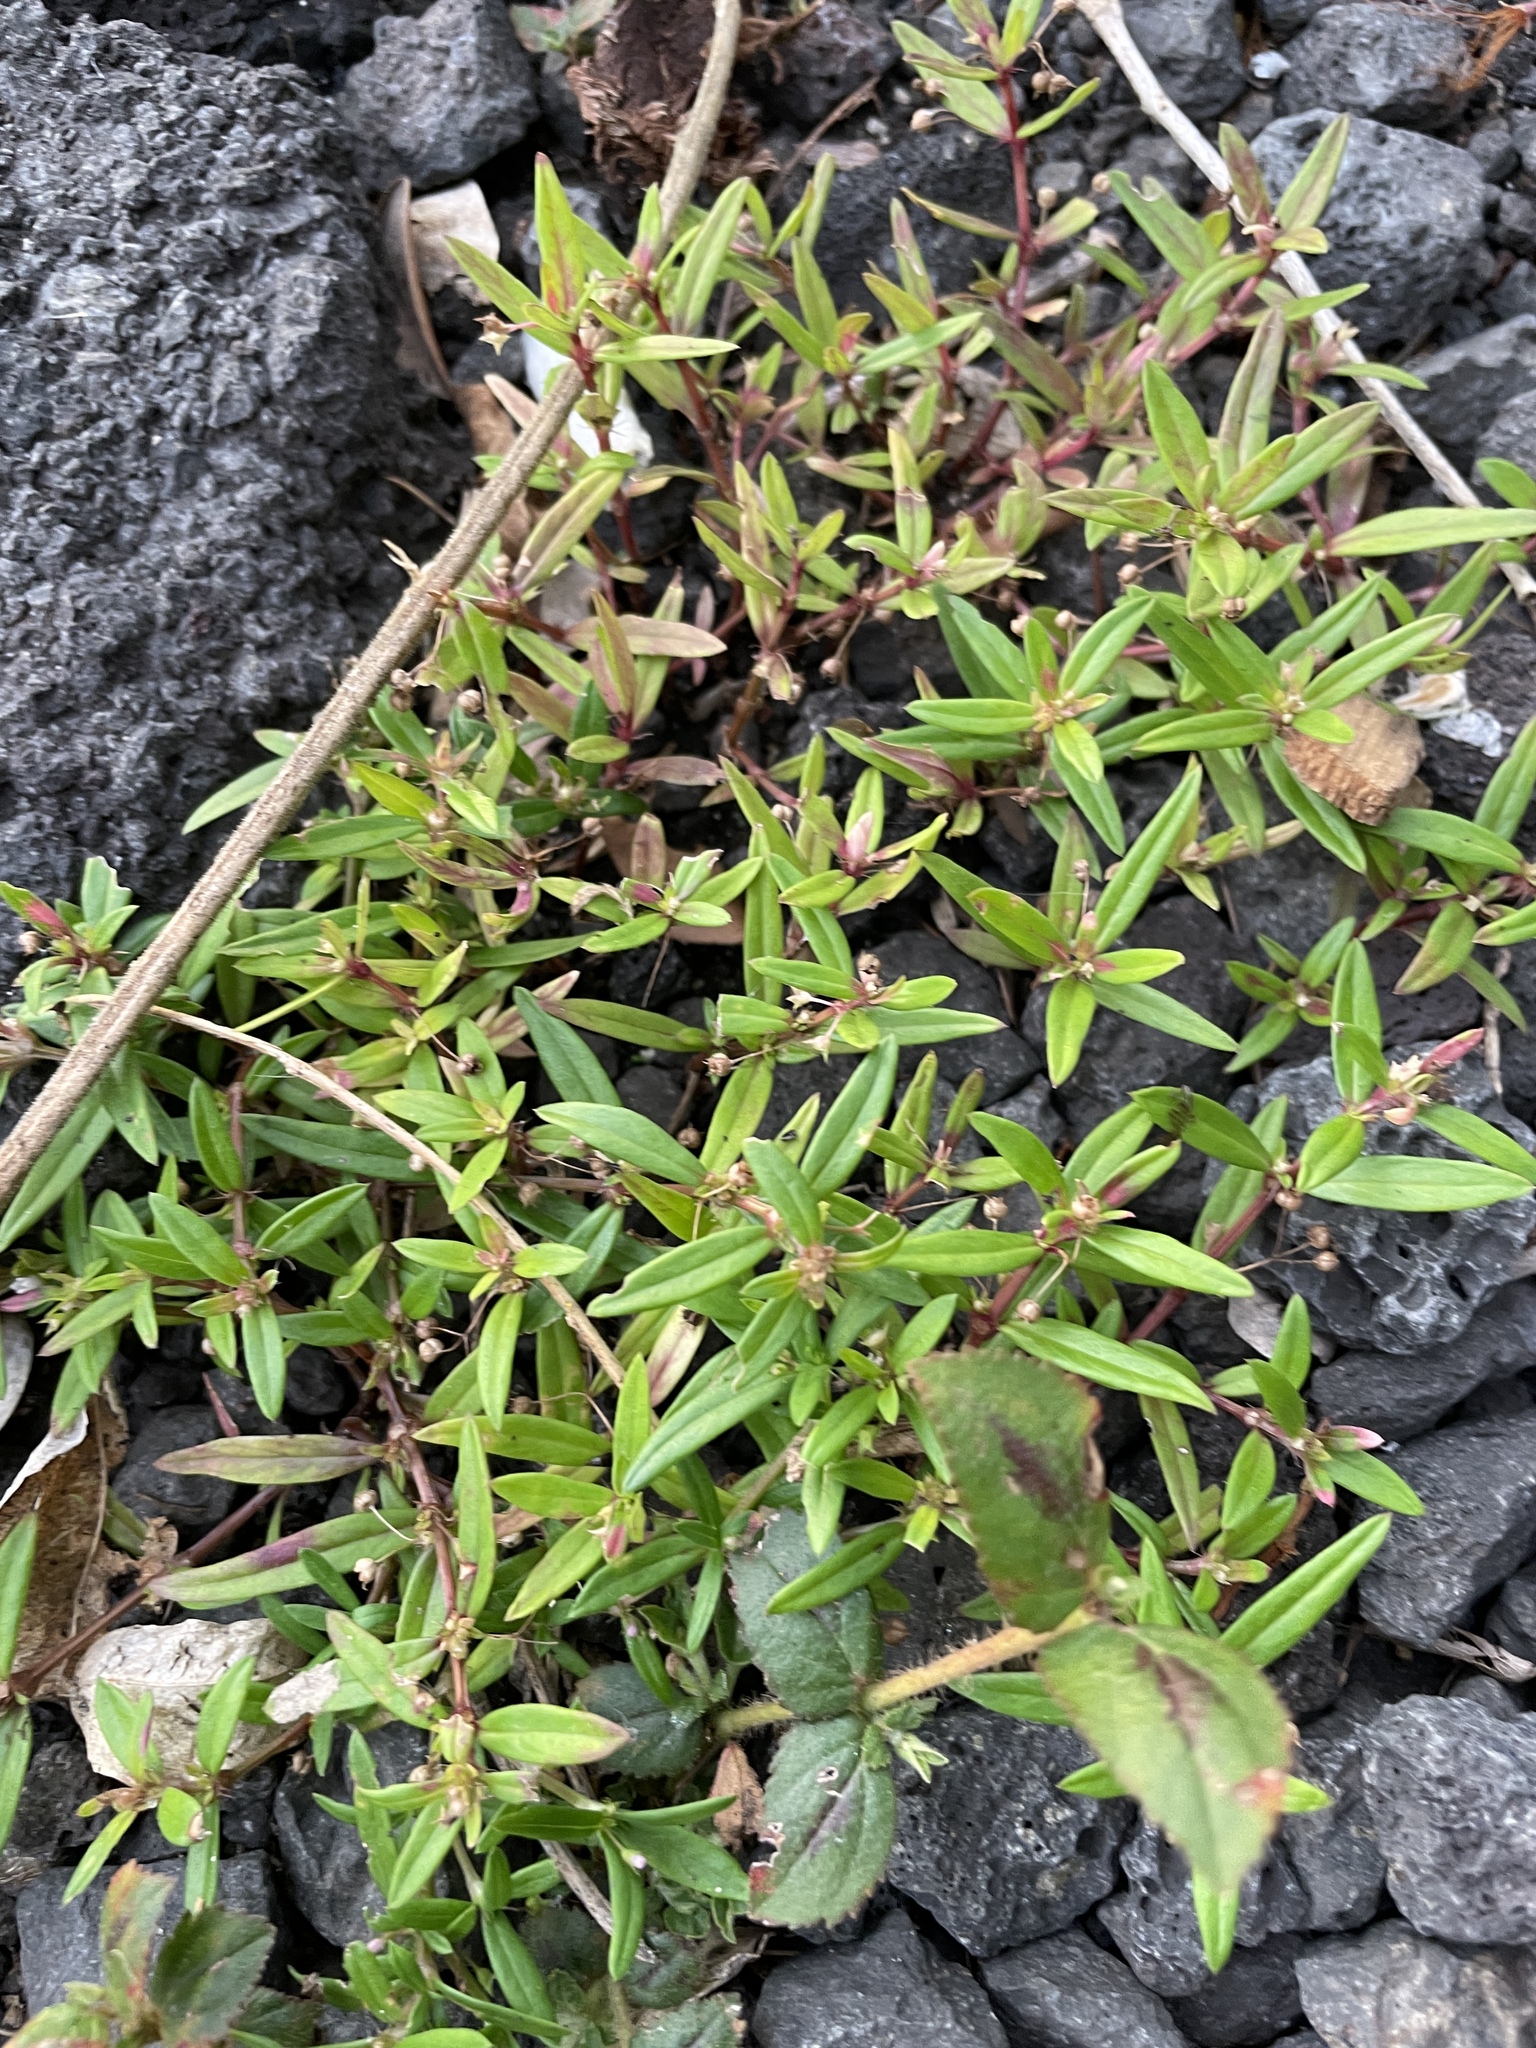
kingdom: Plantae
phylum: Tracheophyta
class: Magnoliopsida
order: Gentianales
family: Rubiaceae
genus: Oldenlandia
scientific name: Oldenlandia corymbosa
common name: Flat-top mille graines
